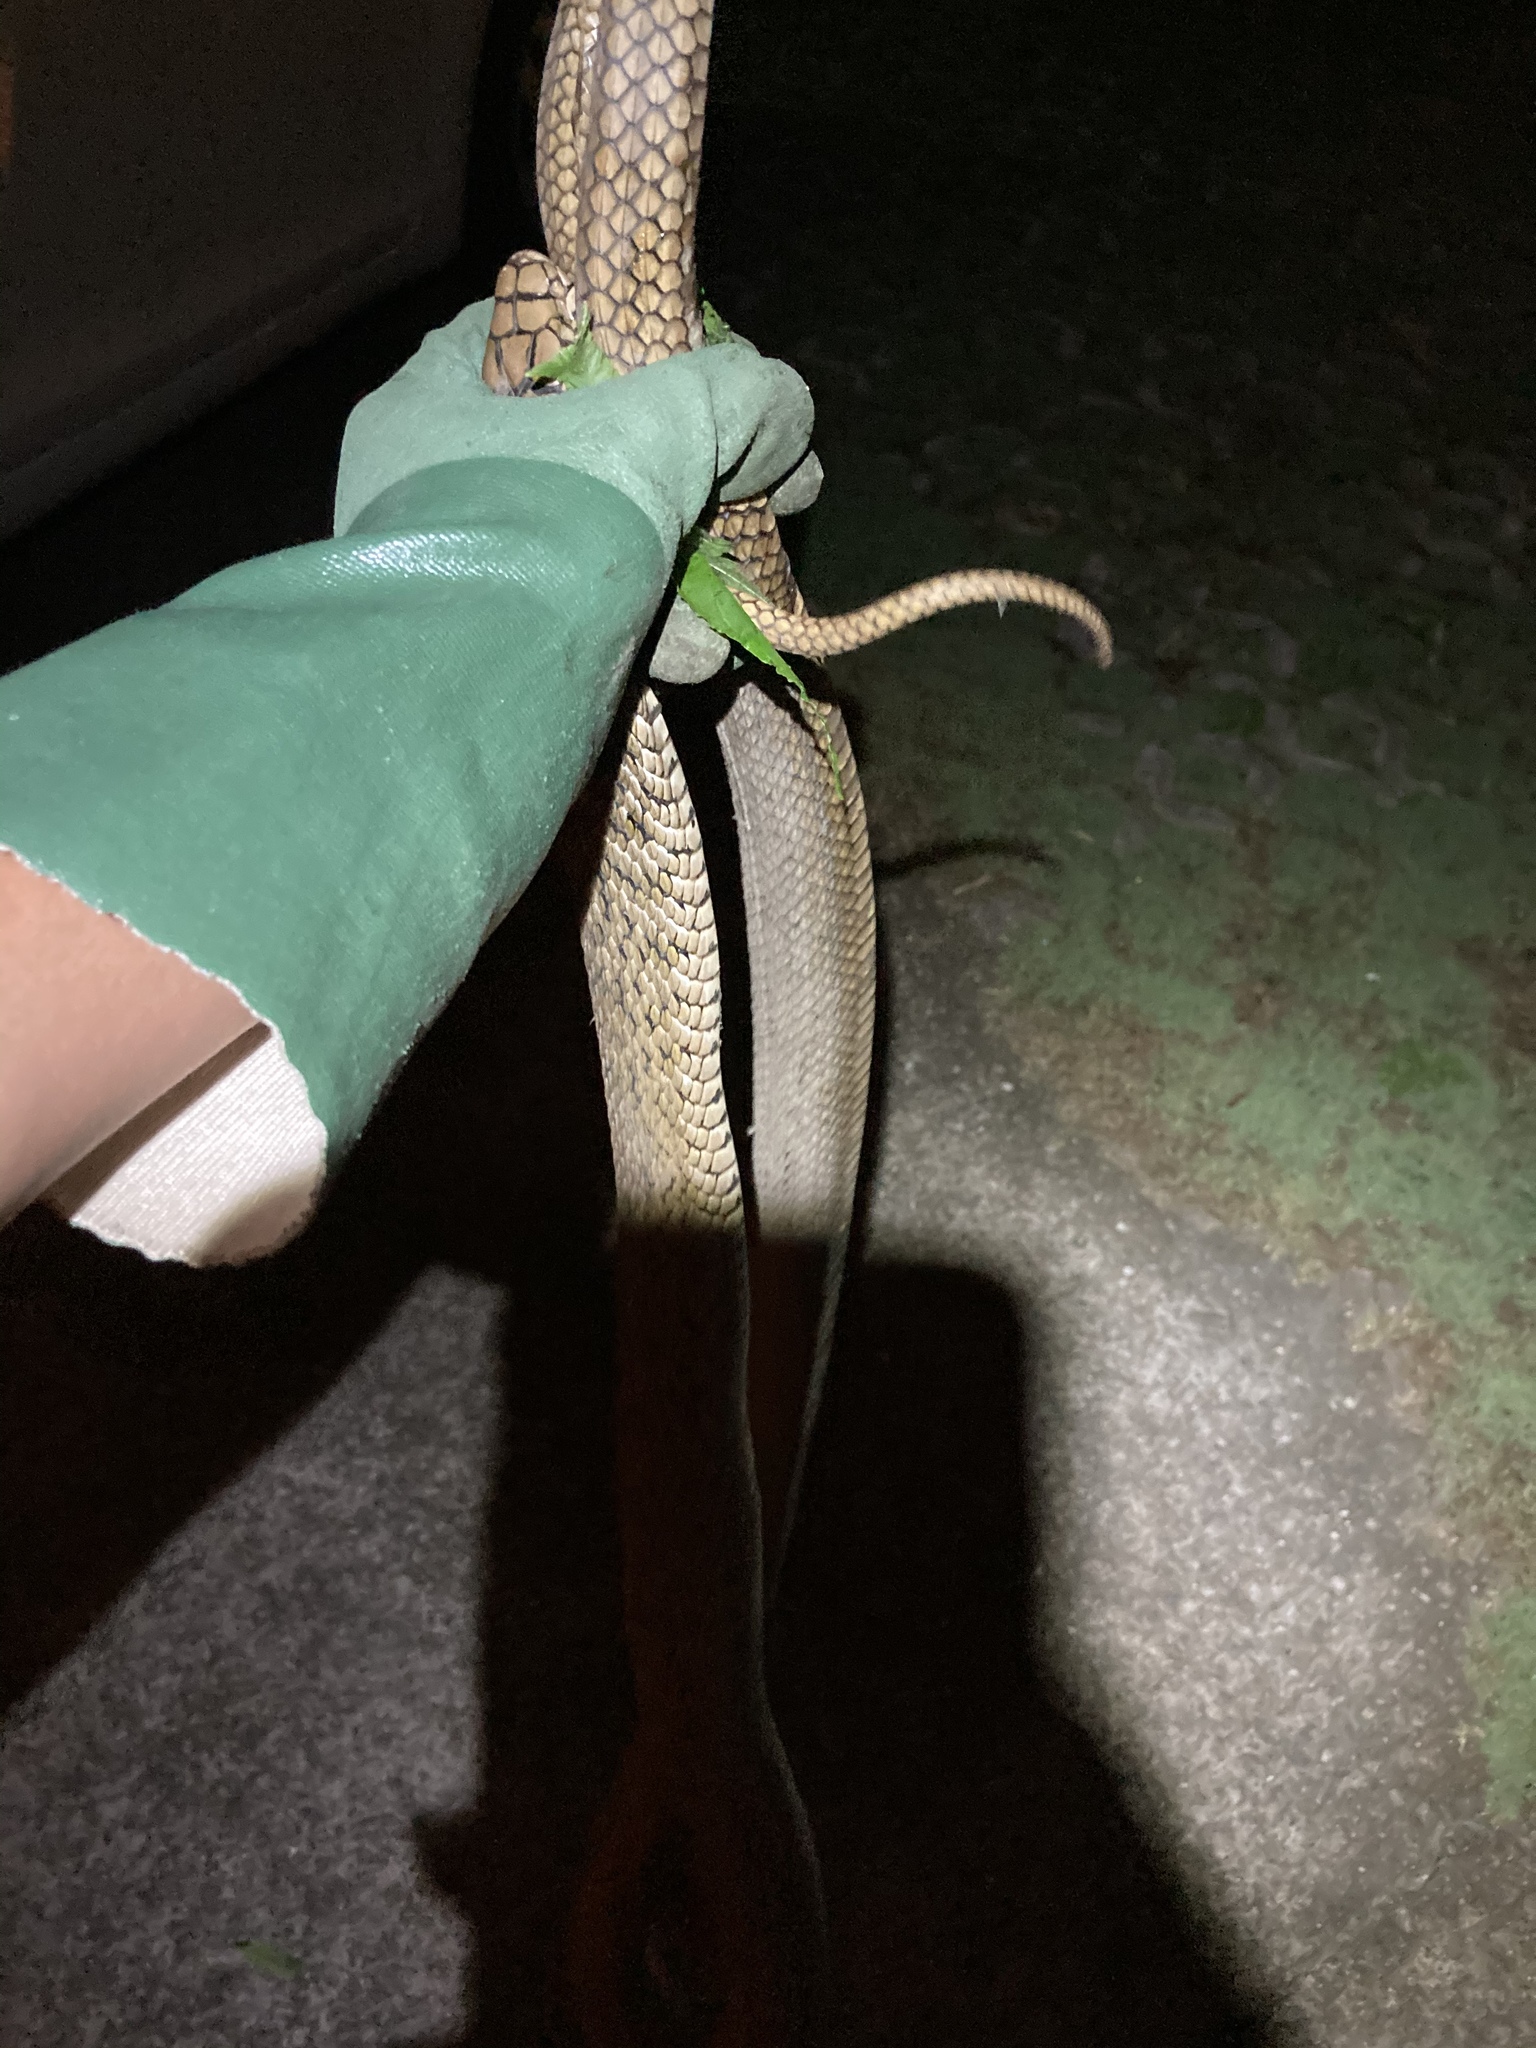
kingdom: Animalia
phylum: Chordata
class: Squamata
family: Colubridae
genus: Elaphe
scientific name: Elaphe carinata
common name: Taiwan stink snake
